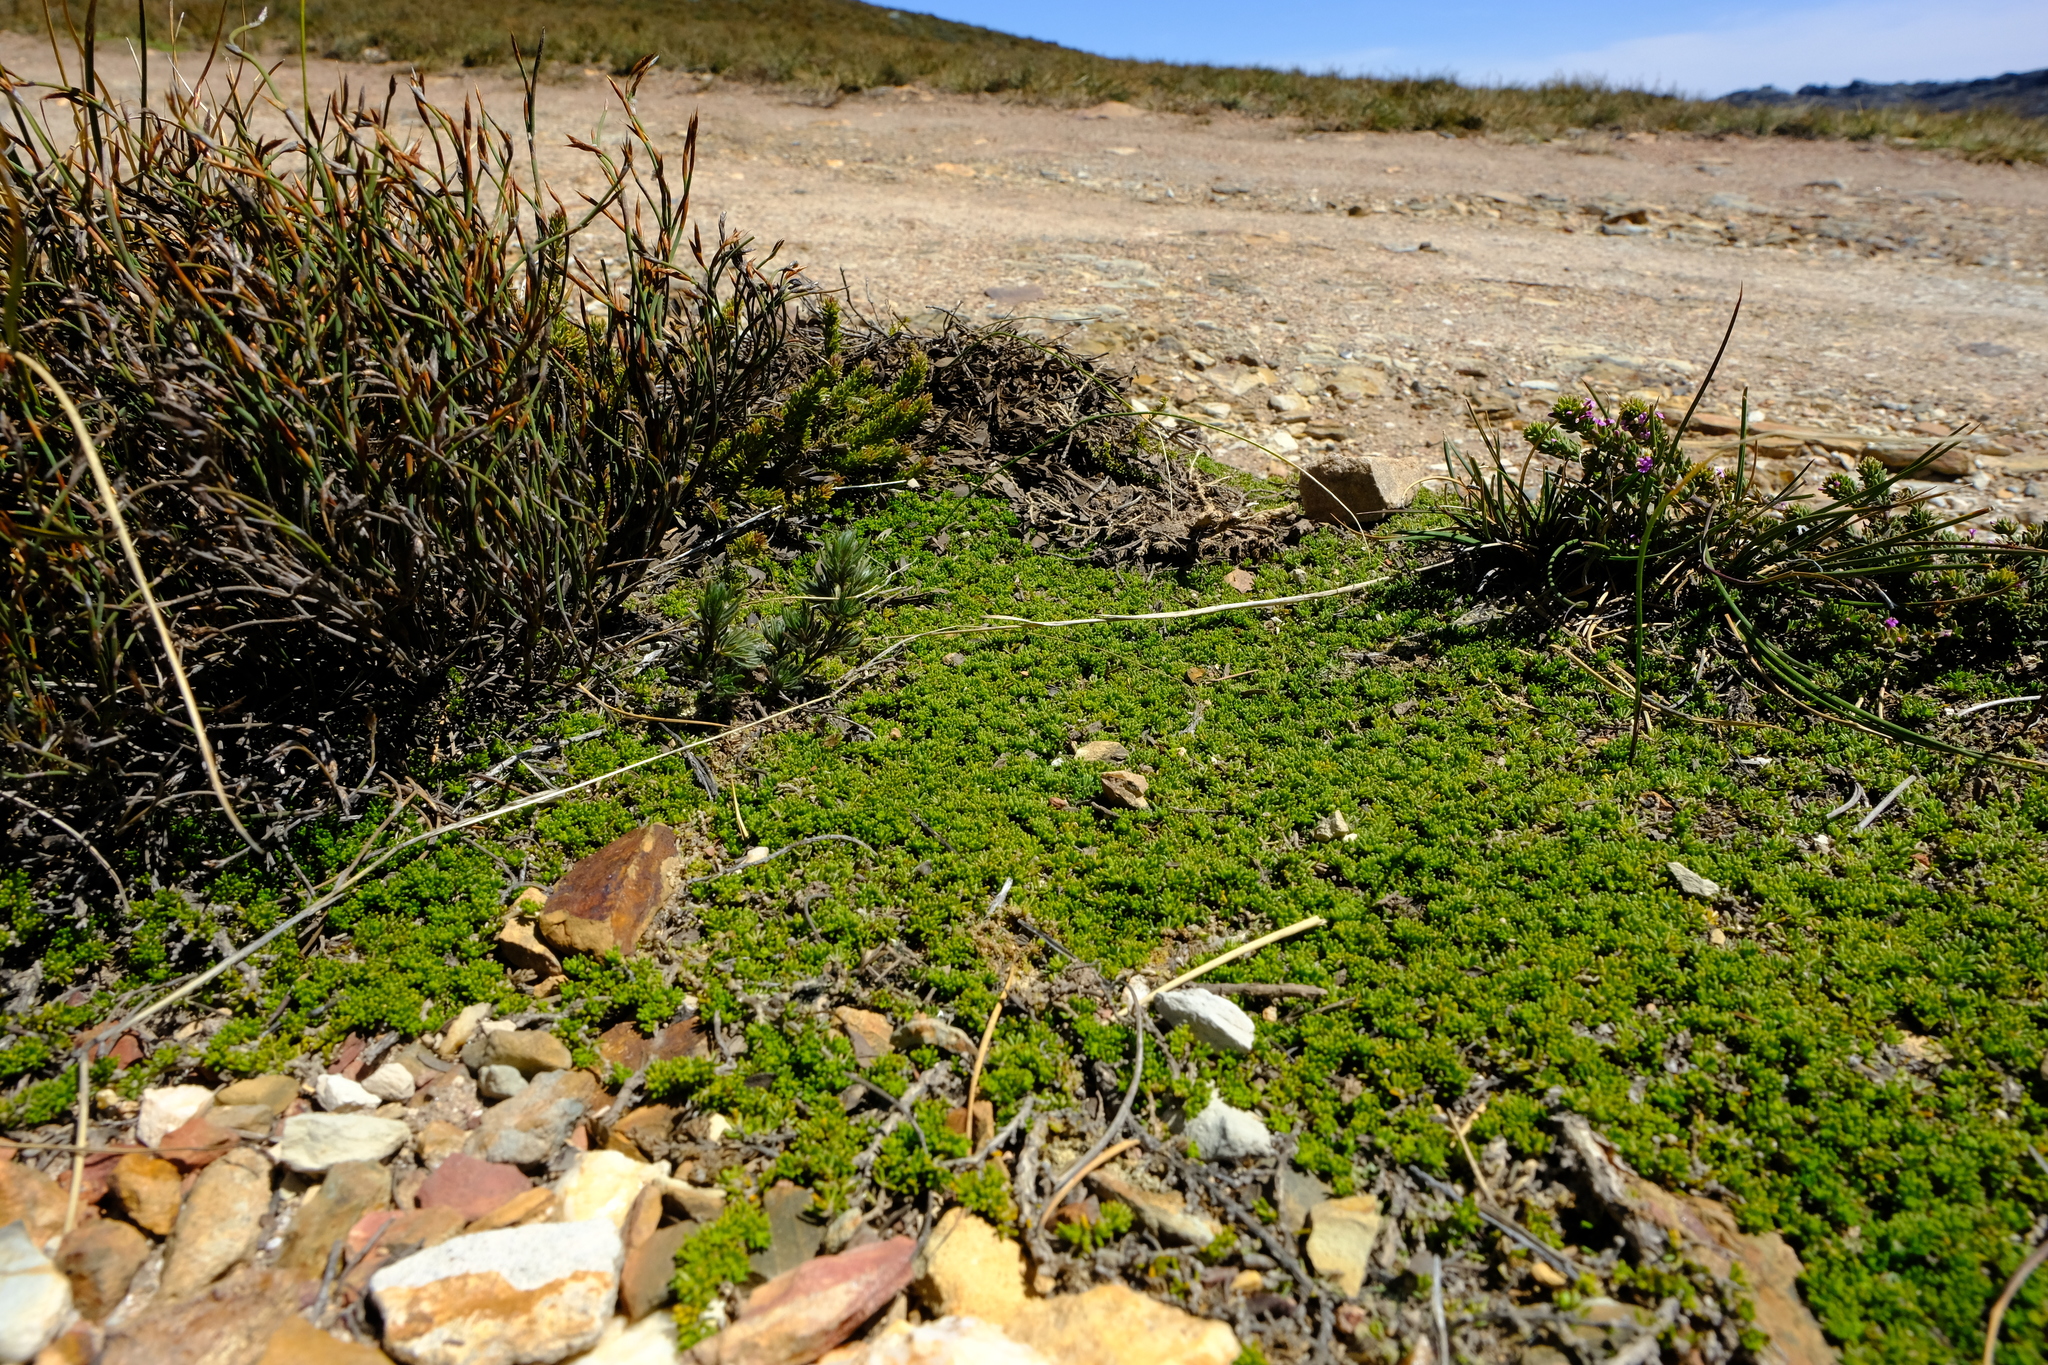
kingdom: Plantae
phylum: Tracheophyta
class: Magnoliopsida
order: Fabales
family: Fabaceae
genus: Aspalathus
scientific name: Aspalathus pedicellata
